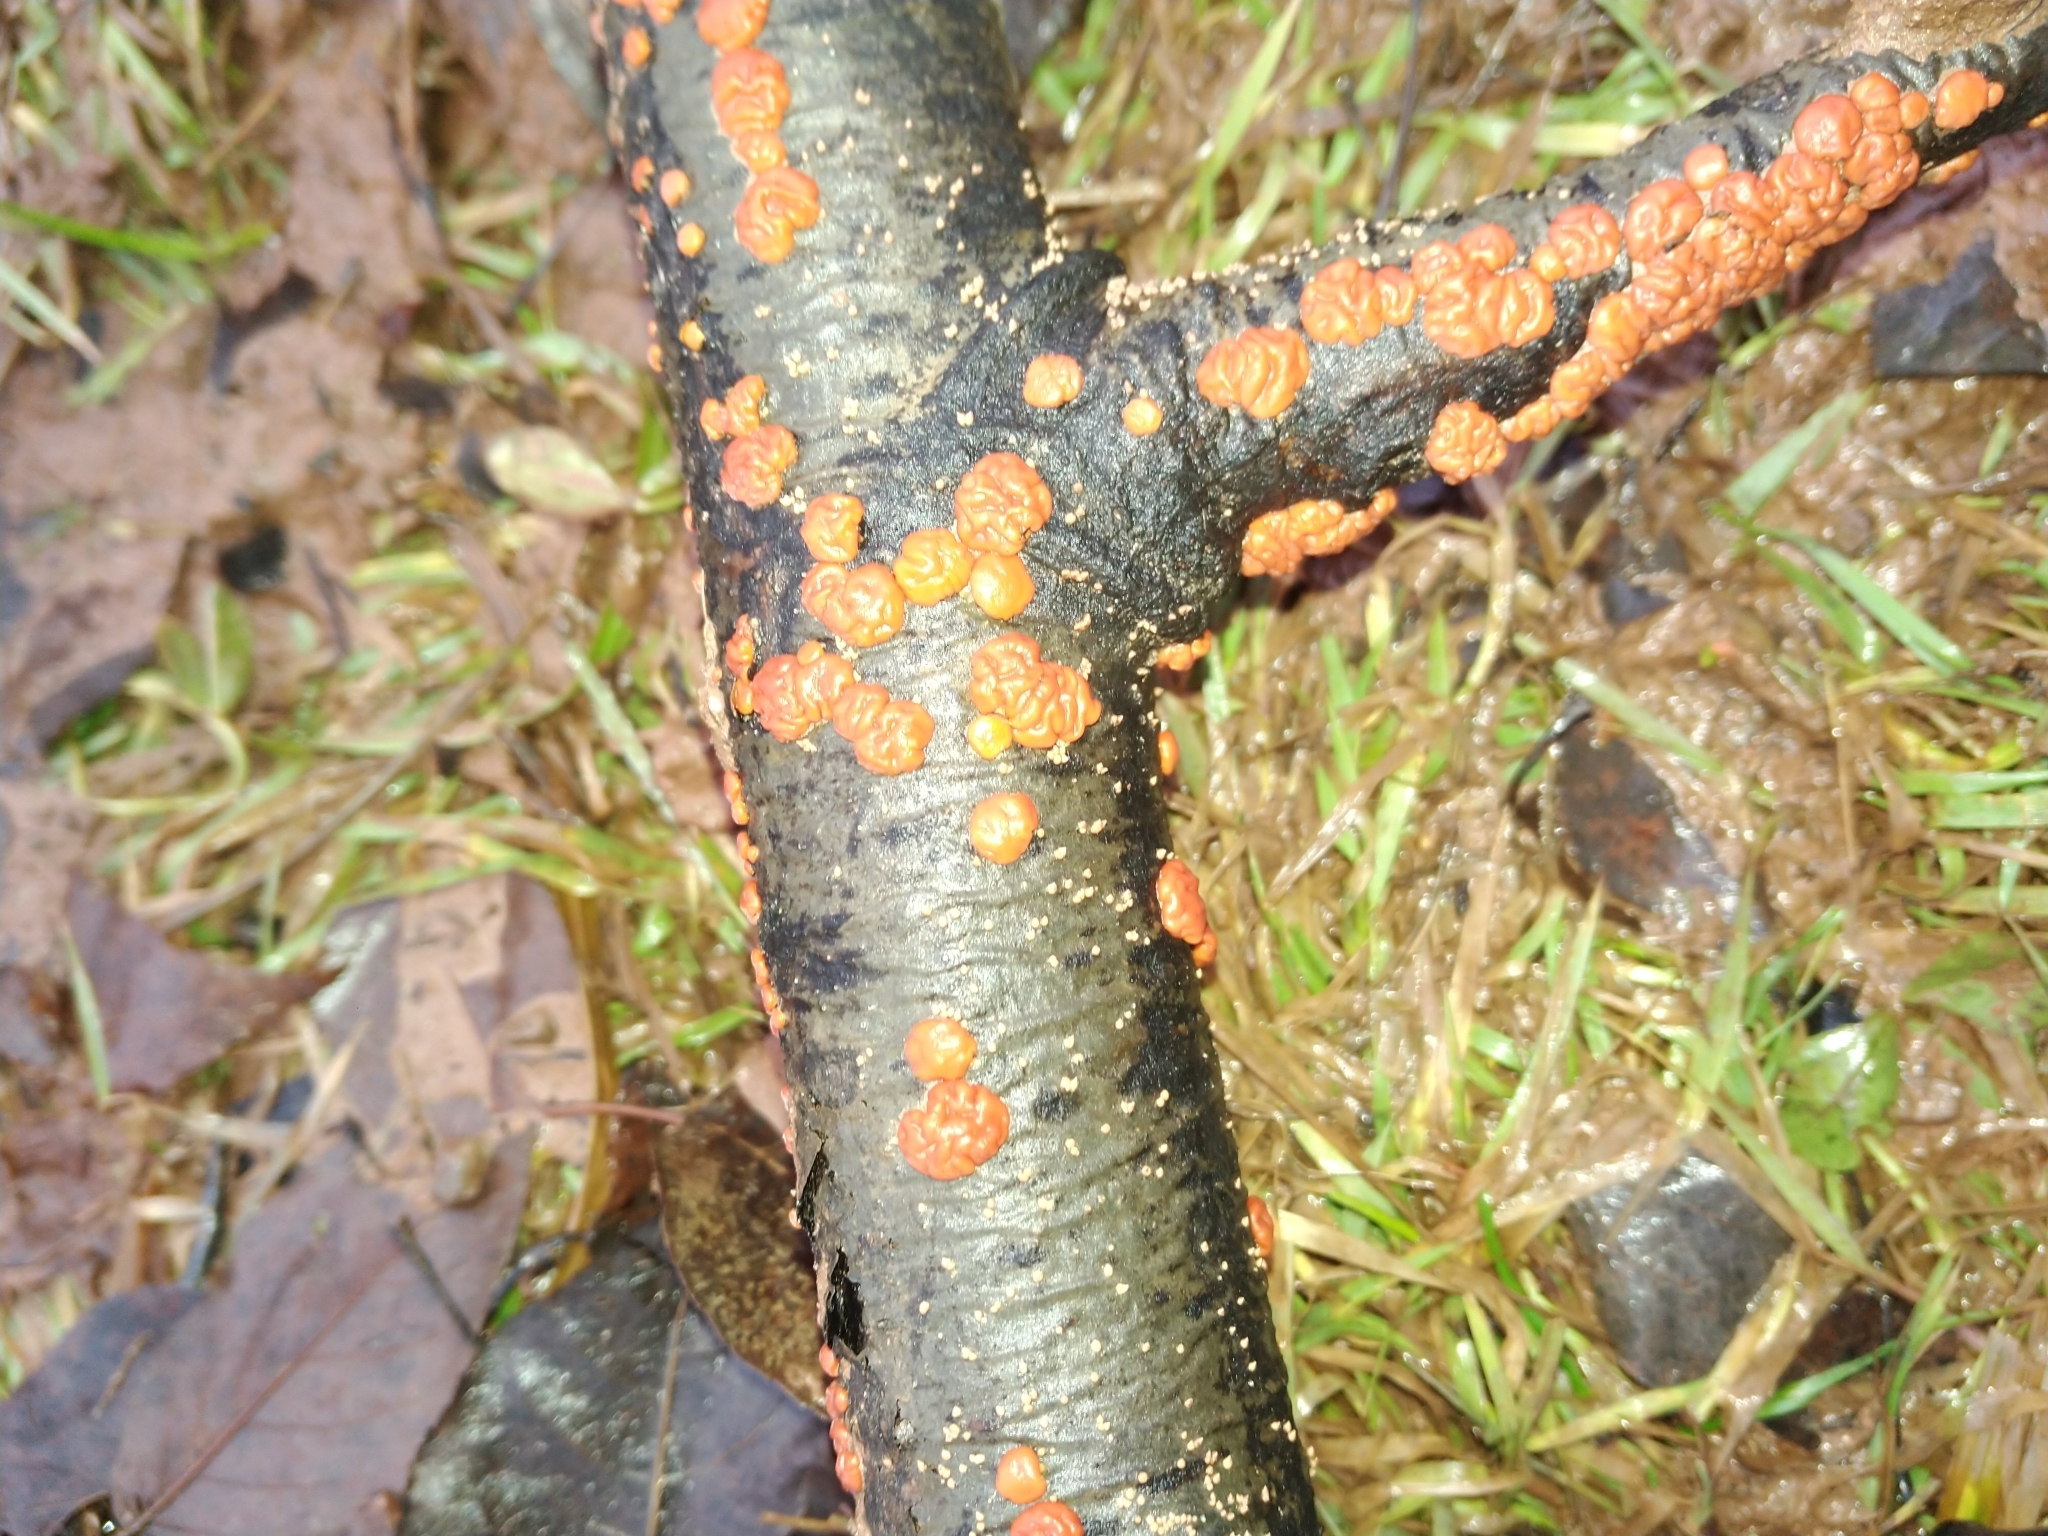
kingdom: Fungi
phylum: Basidiomycota
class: Agaricomycetes
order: Russulales
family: Peniophoraceae
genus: Peniophora
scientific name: Peniophora rufa
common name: Red tree brain fungus
